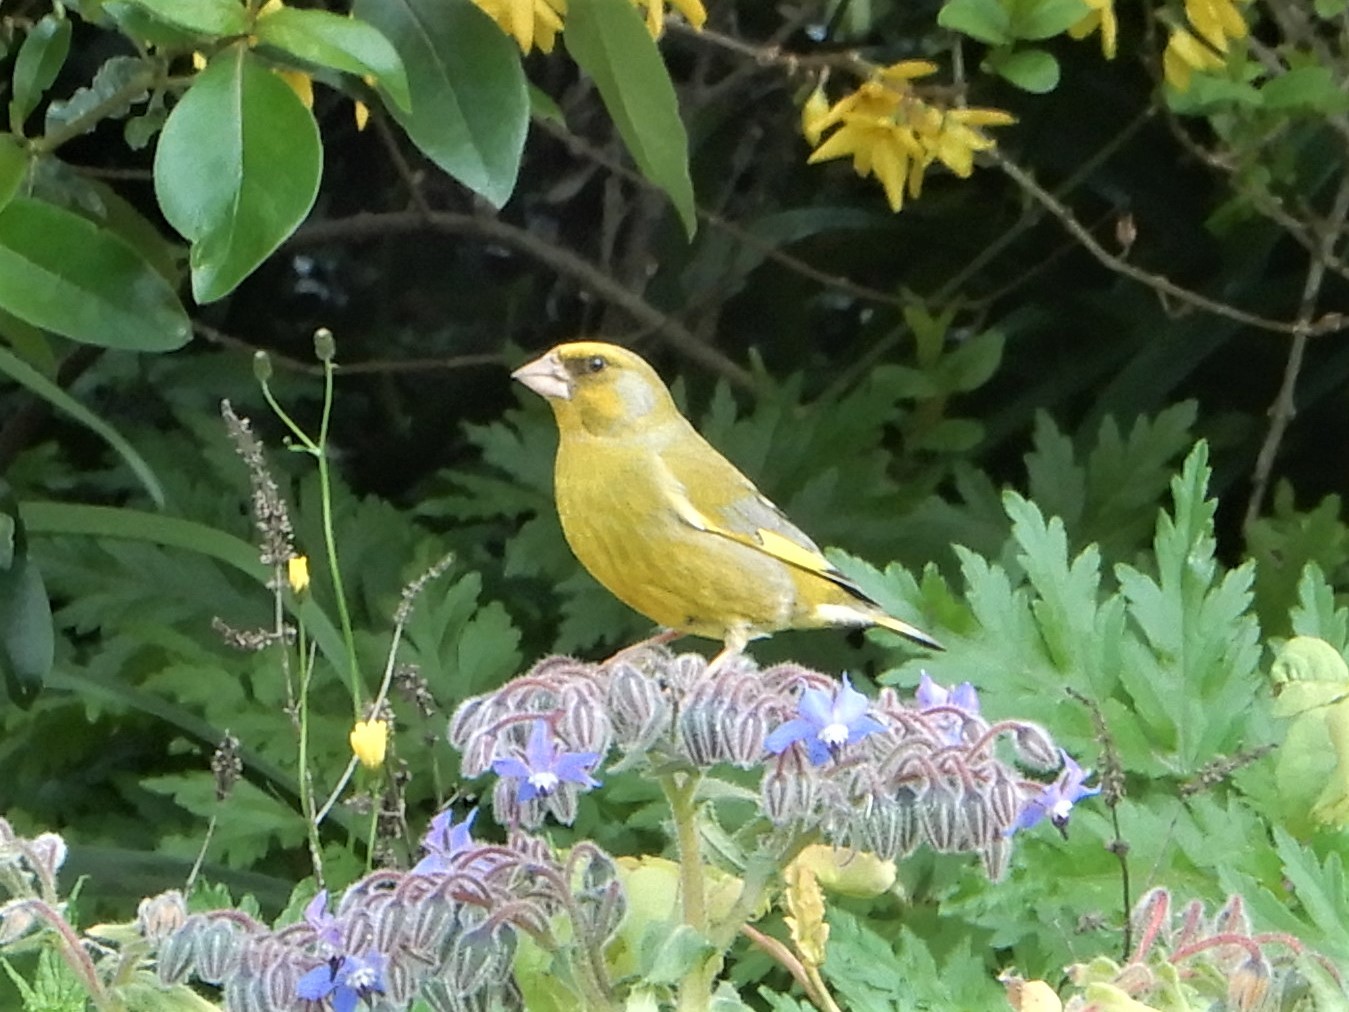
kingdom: Plantae
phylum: Tracheophyta
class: Liliopsida
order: Poales
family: Poaceae
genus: Chloris
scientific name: Chloris chloris
